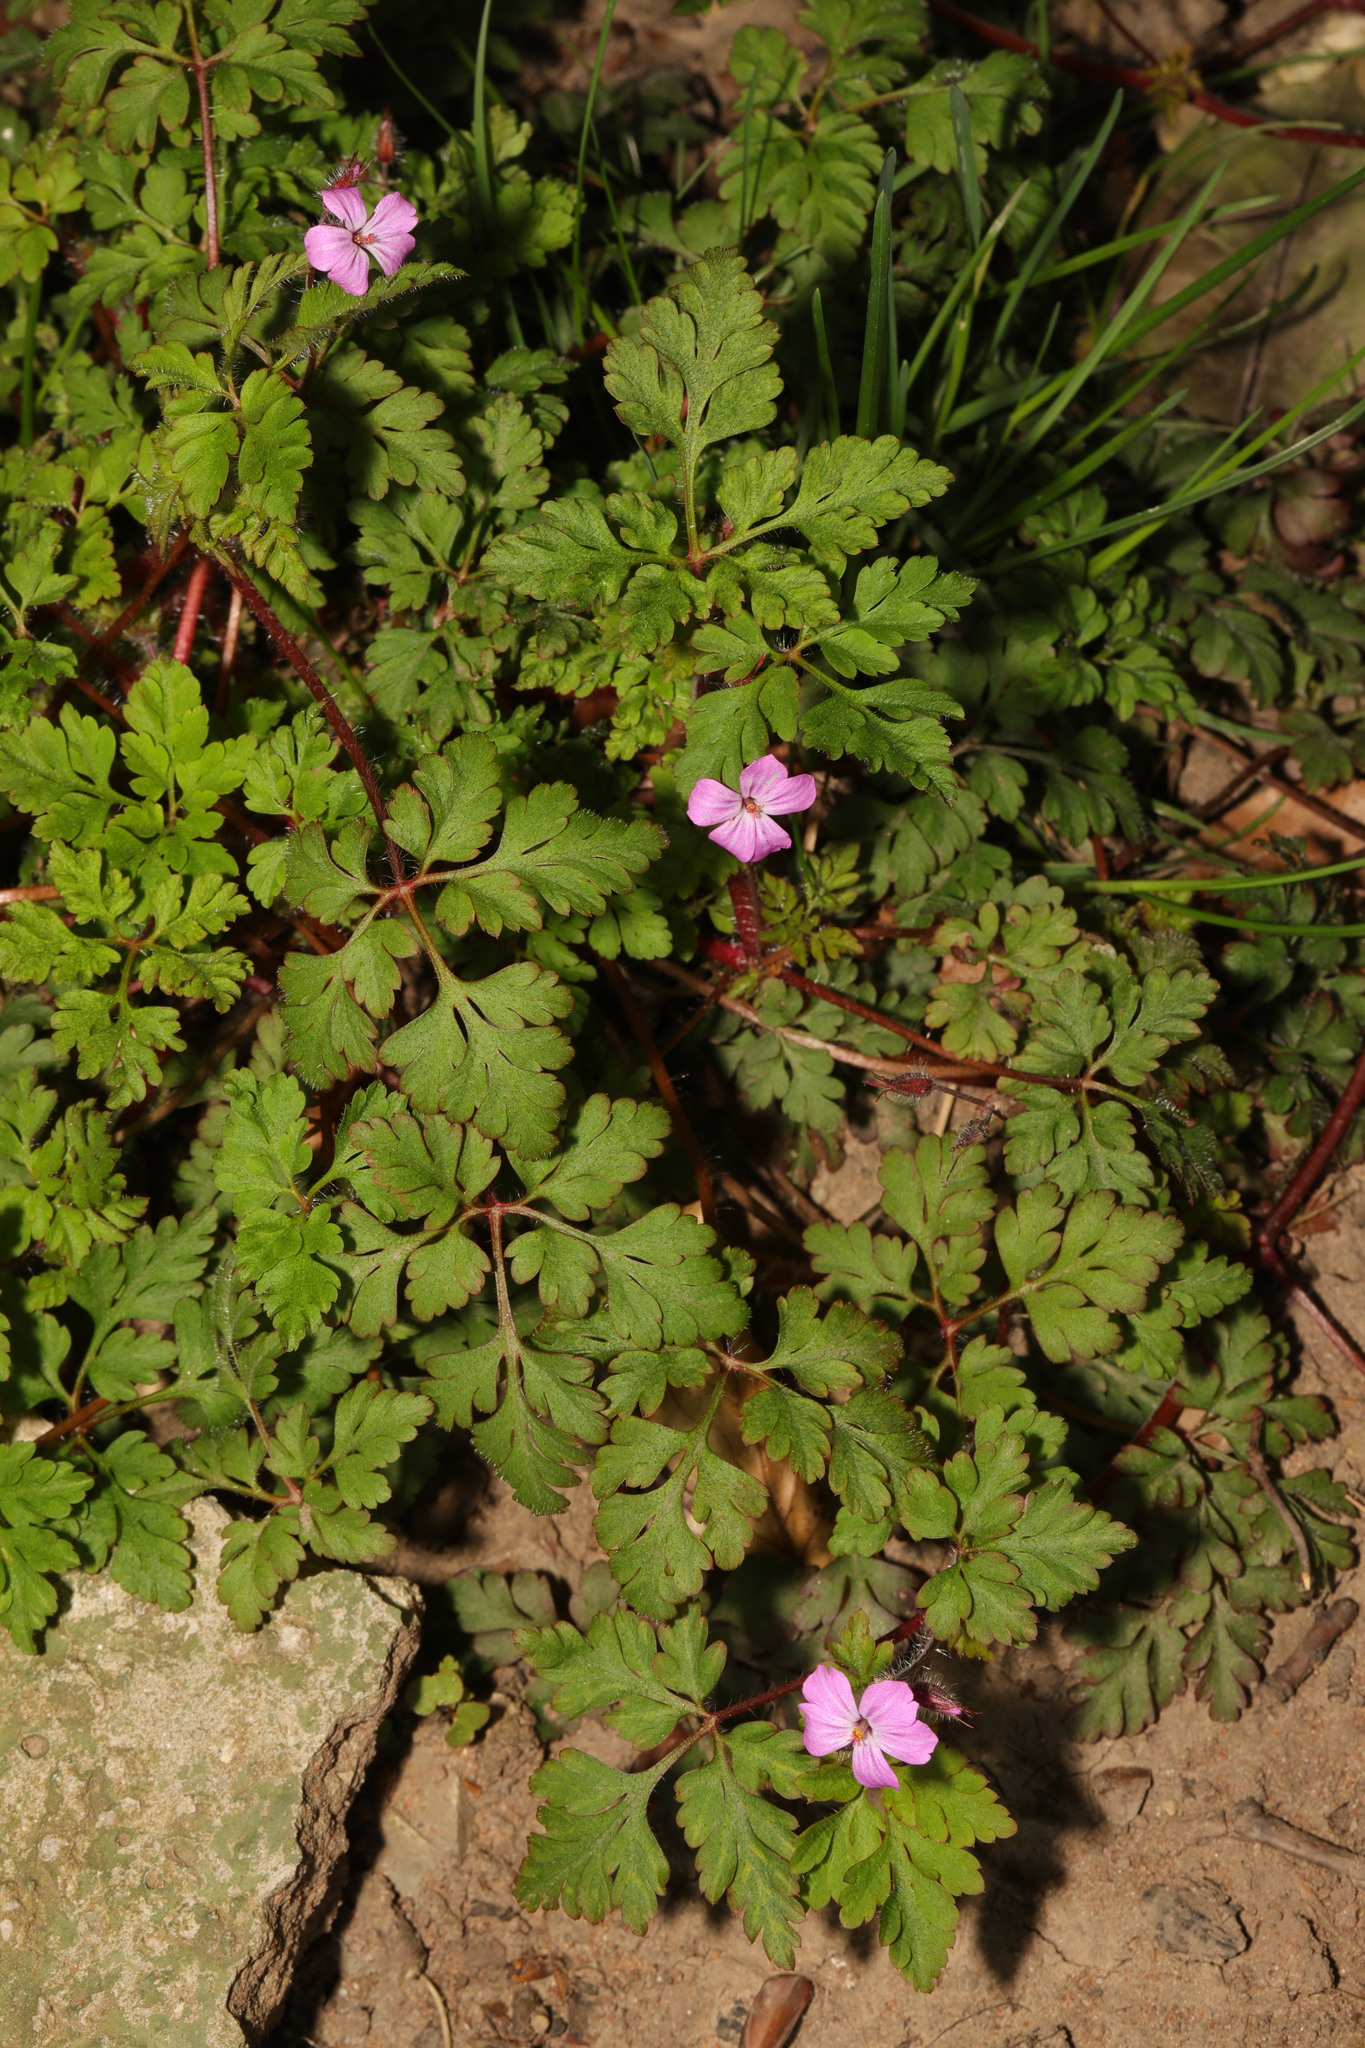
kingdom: Plantae
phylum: Tracheophyta
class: Magnoliopsida
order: Geraniales
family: Geraniaceae
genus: Geranium
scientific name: Geranium robertianum
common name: Herb-robert
